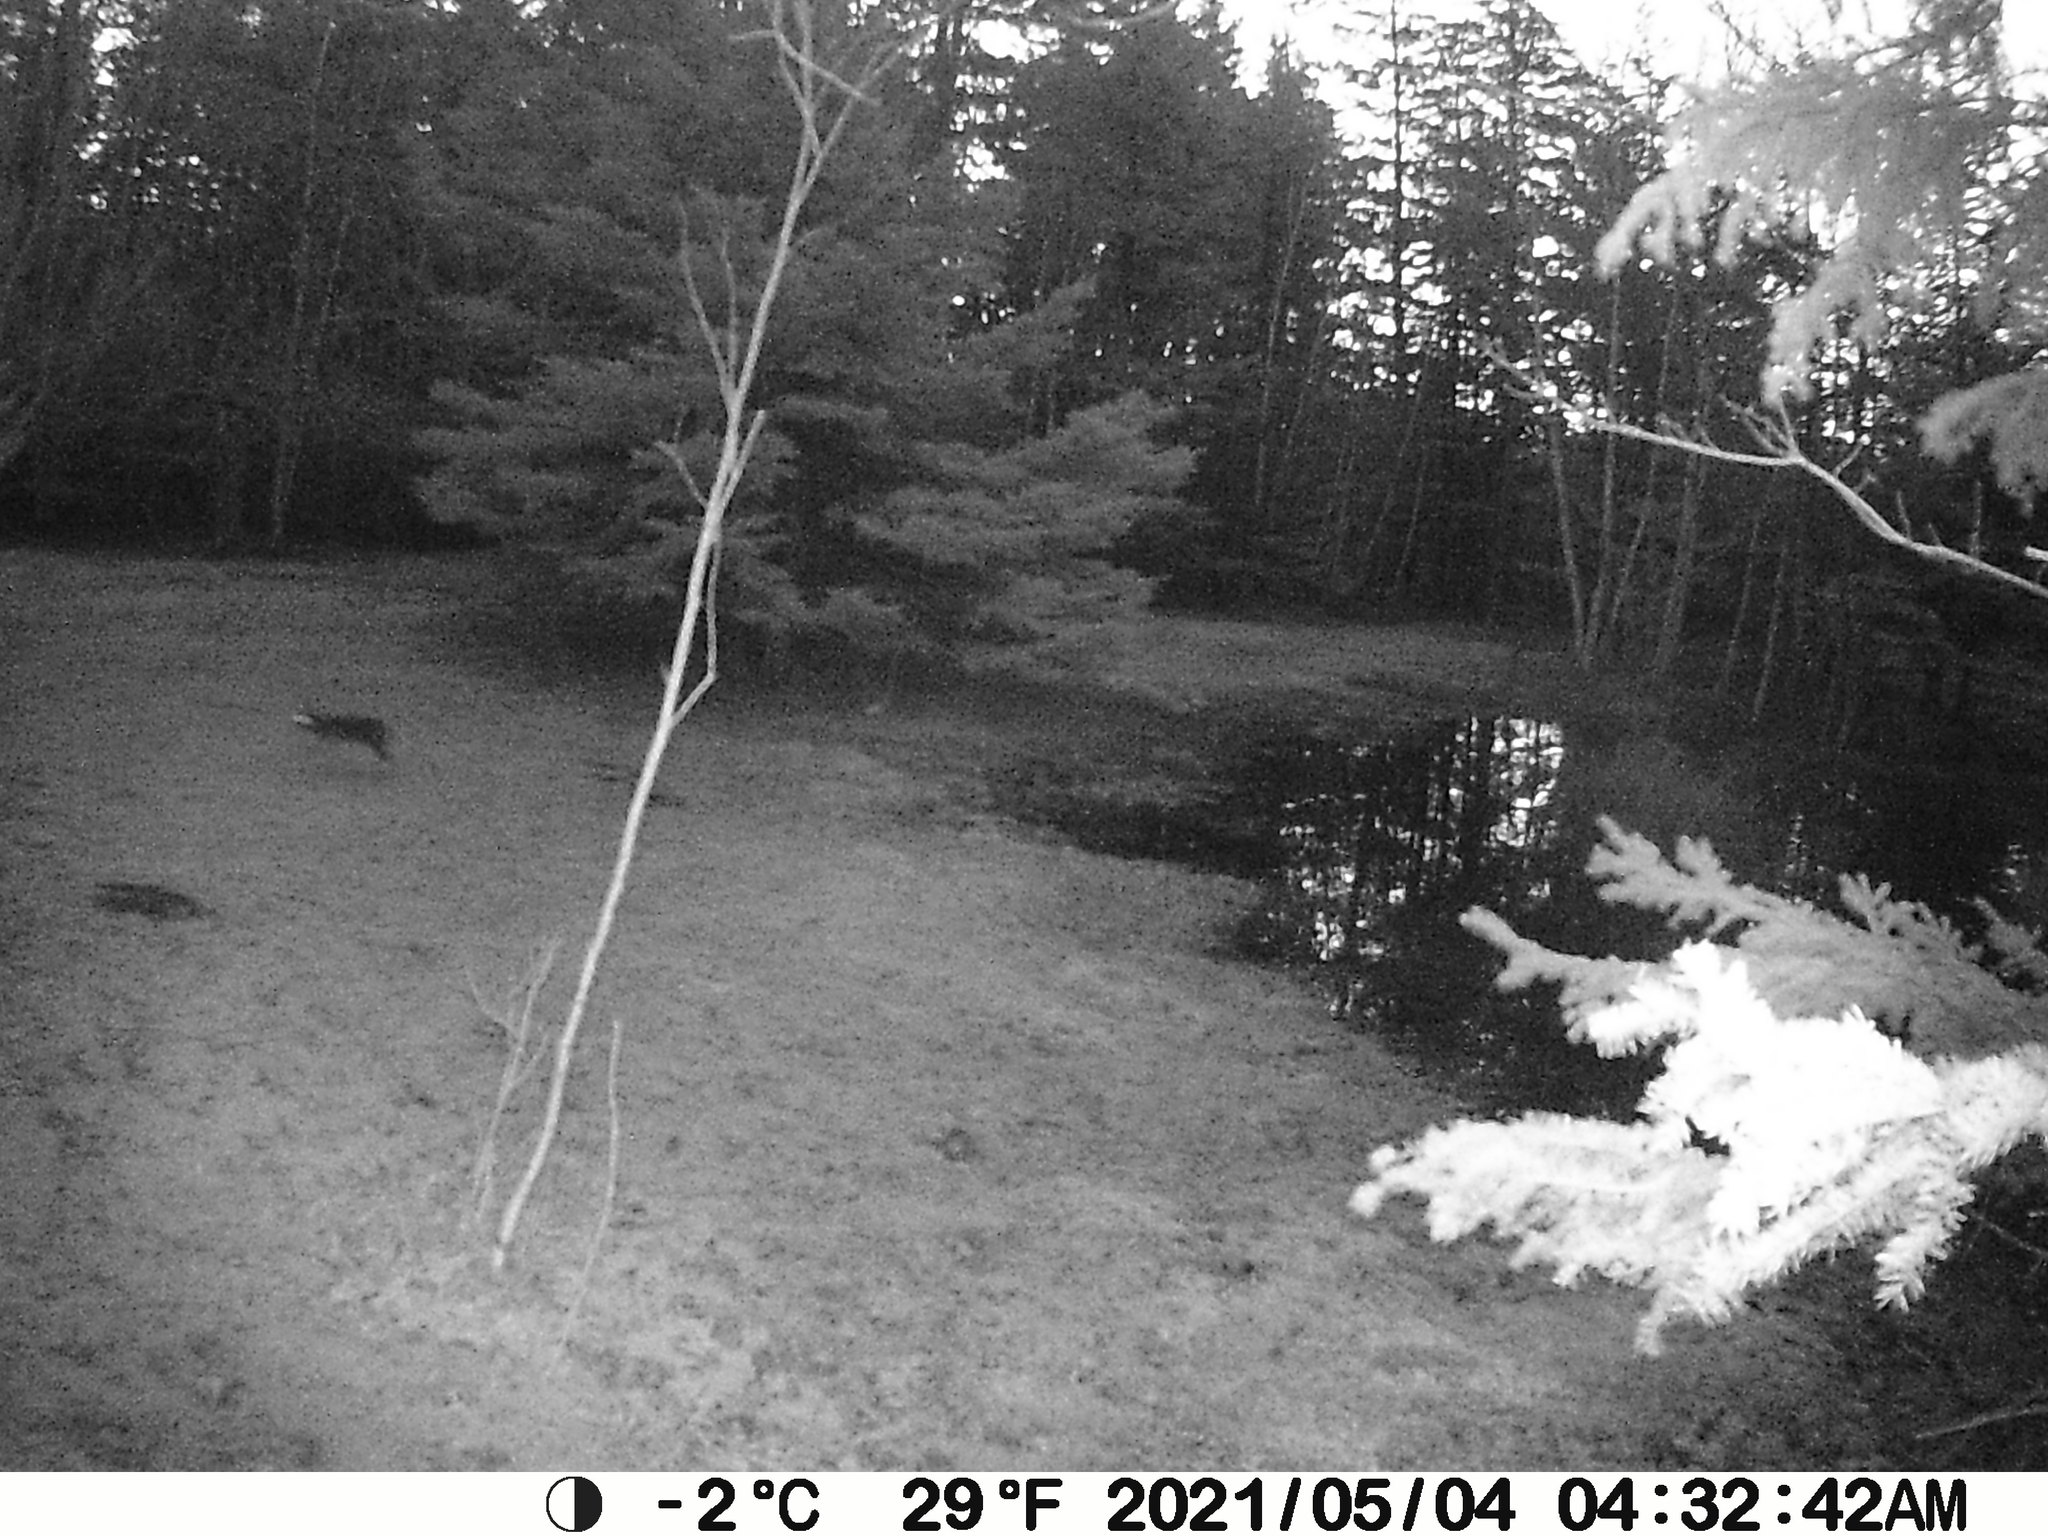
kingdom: Animalia
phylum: Chordata
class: Mammalia
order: Lagomorpha
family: Leporidae
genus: Lepus
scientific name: Lepus americanus
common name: Snowshoe hare
